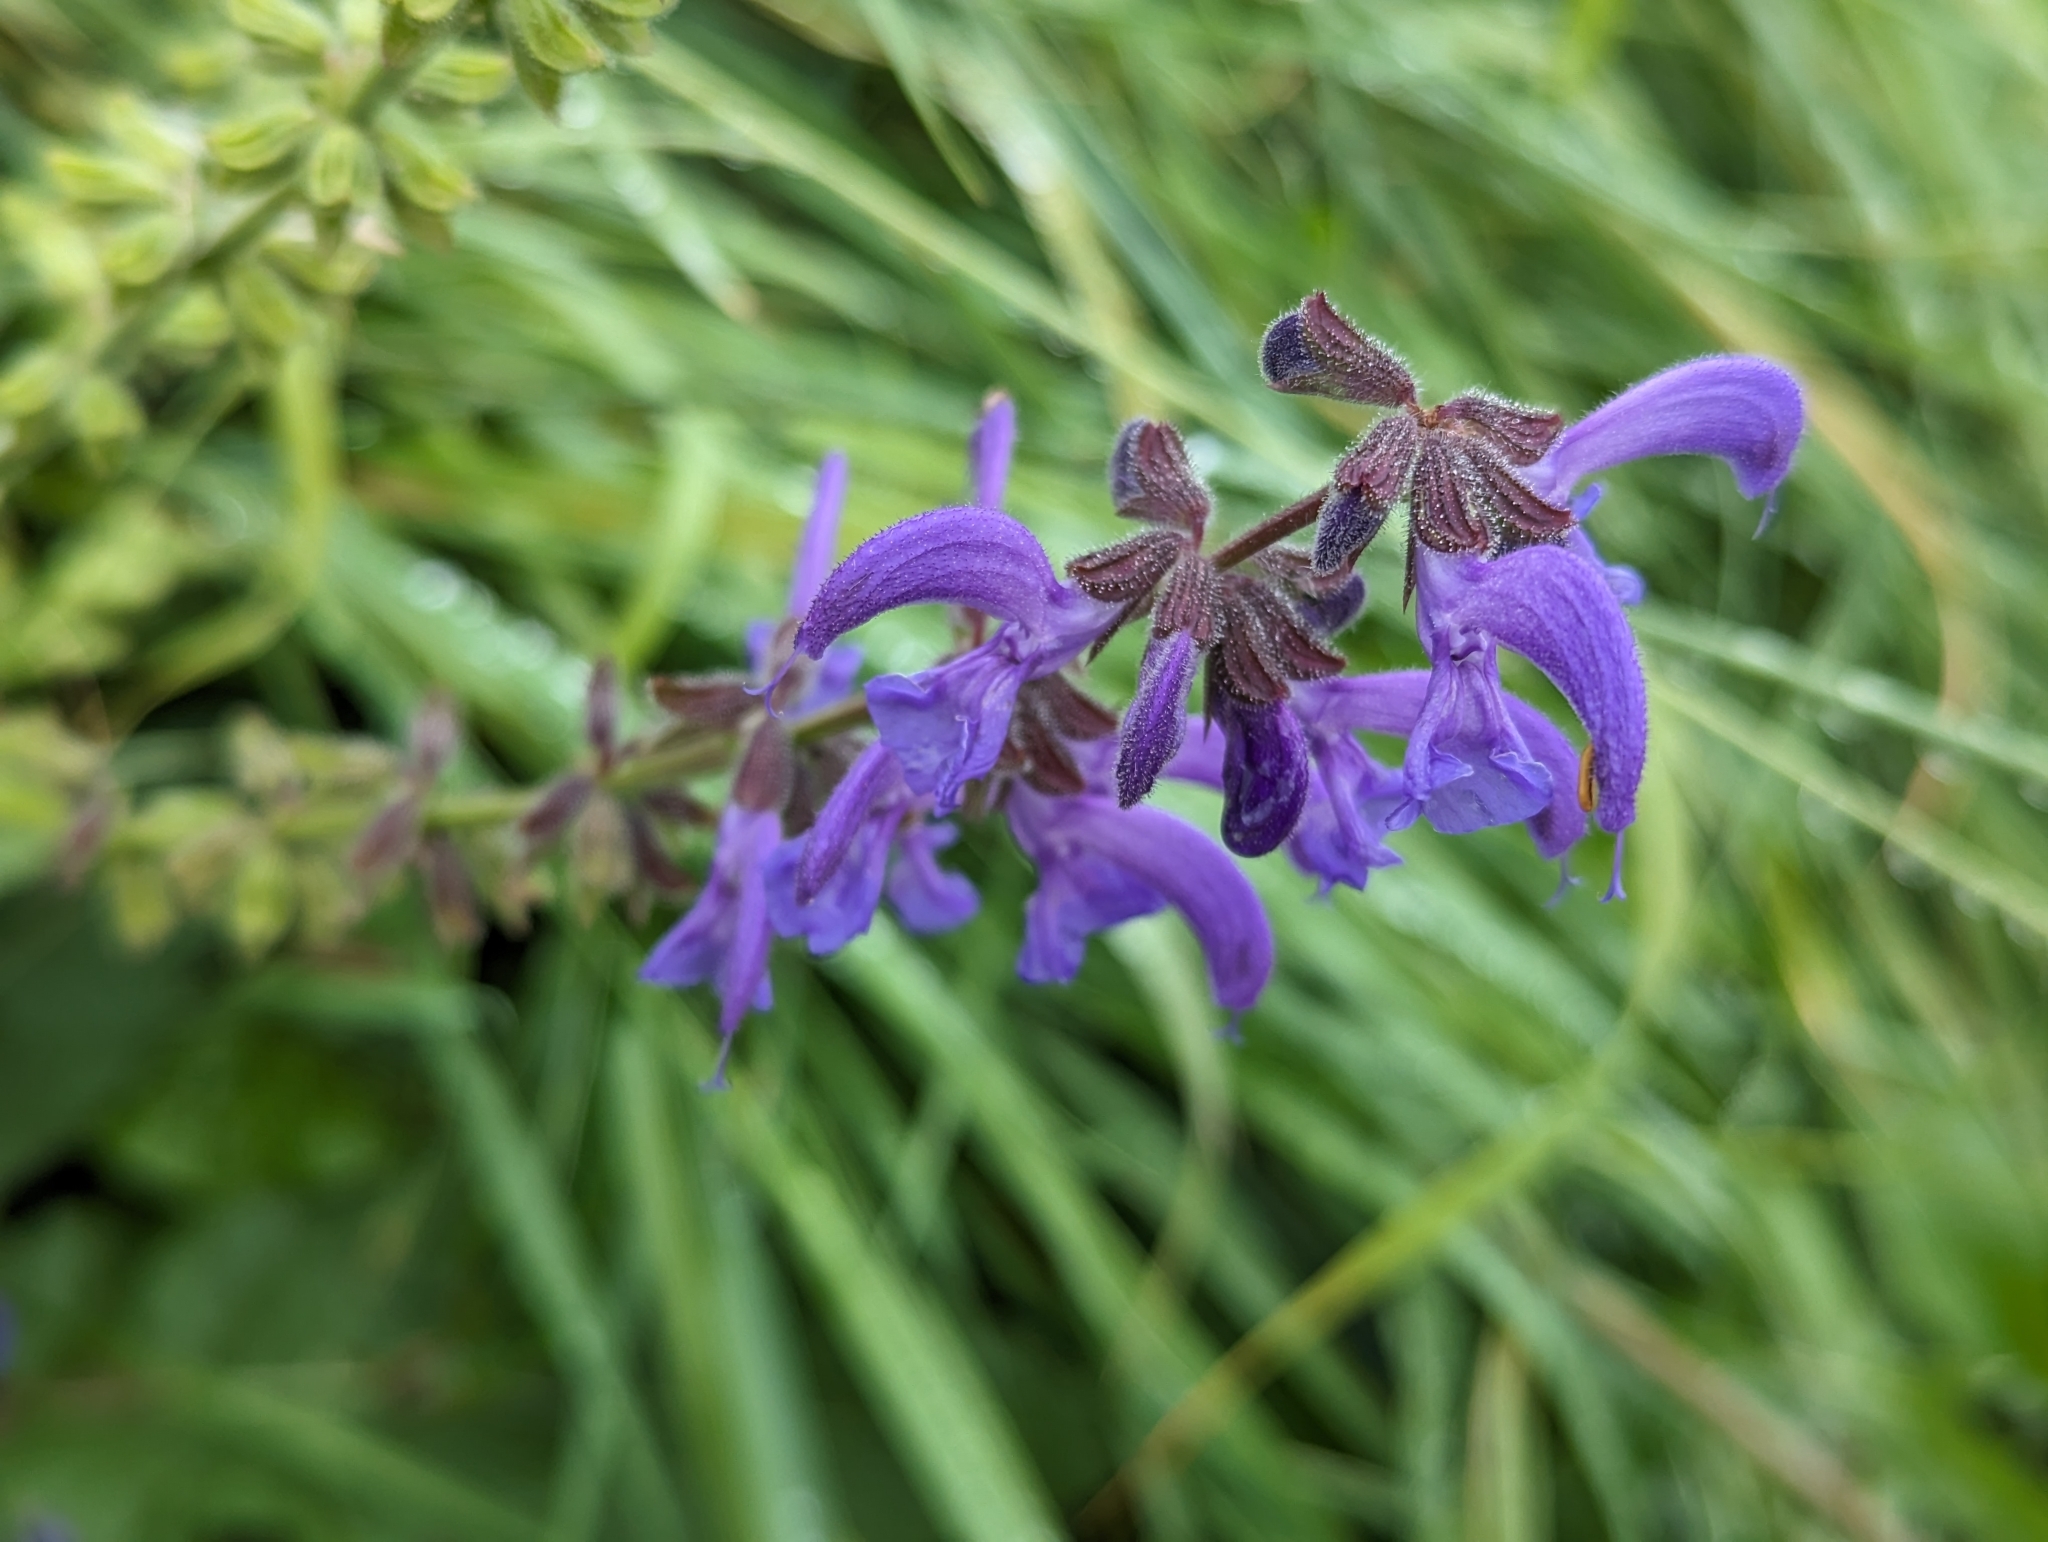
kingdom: Plantae
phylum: Tracheophyta
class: Magnoliopsida
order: Lamiales
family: Lamiaceae
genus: Salvia
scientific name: Salvia pratensis
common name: Meadow sage
